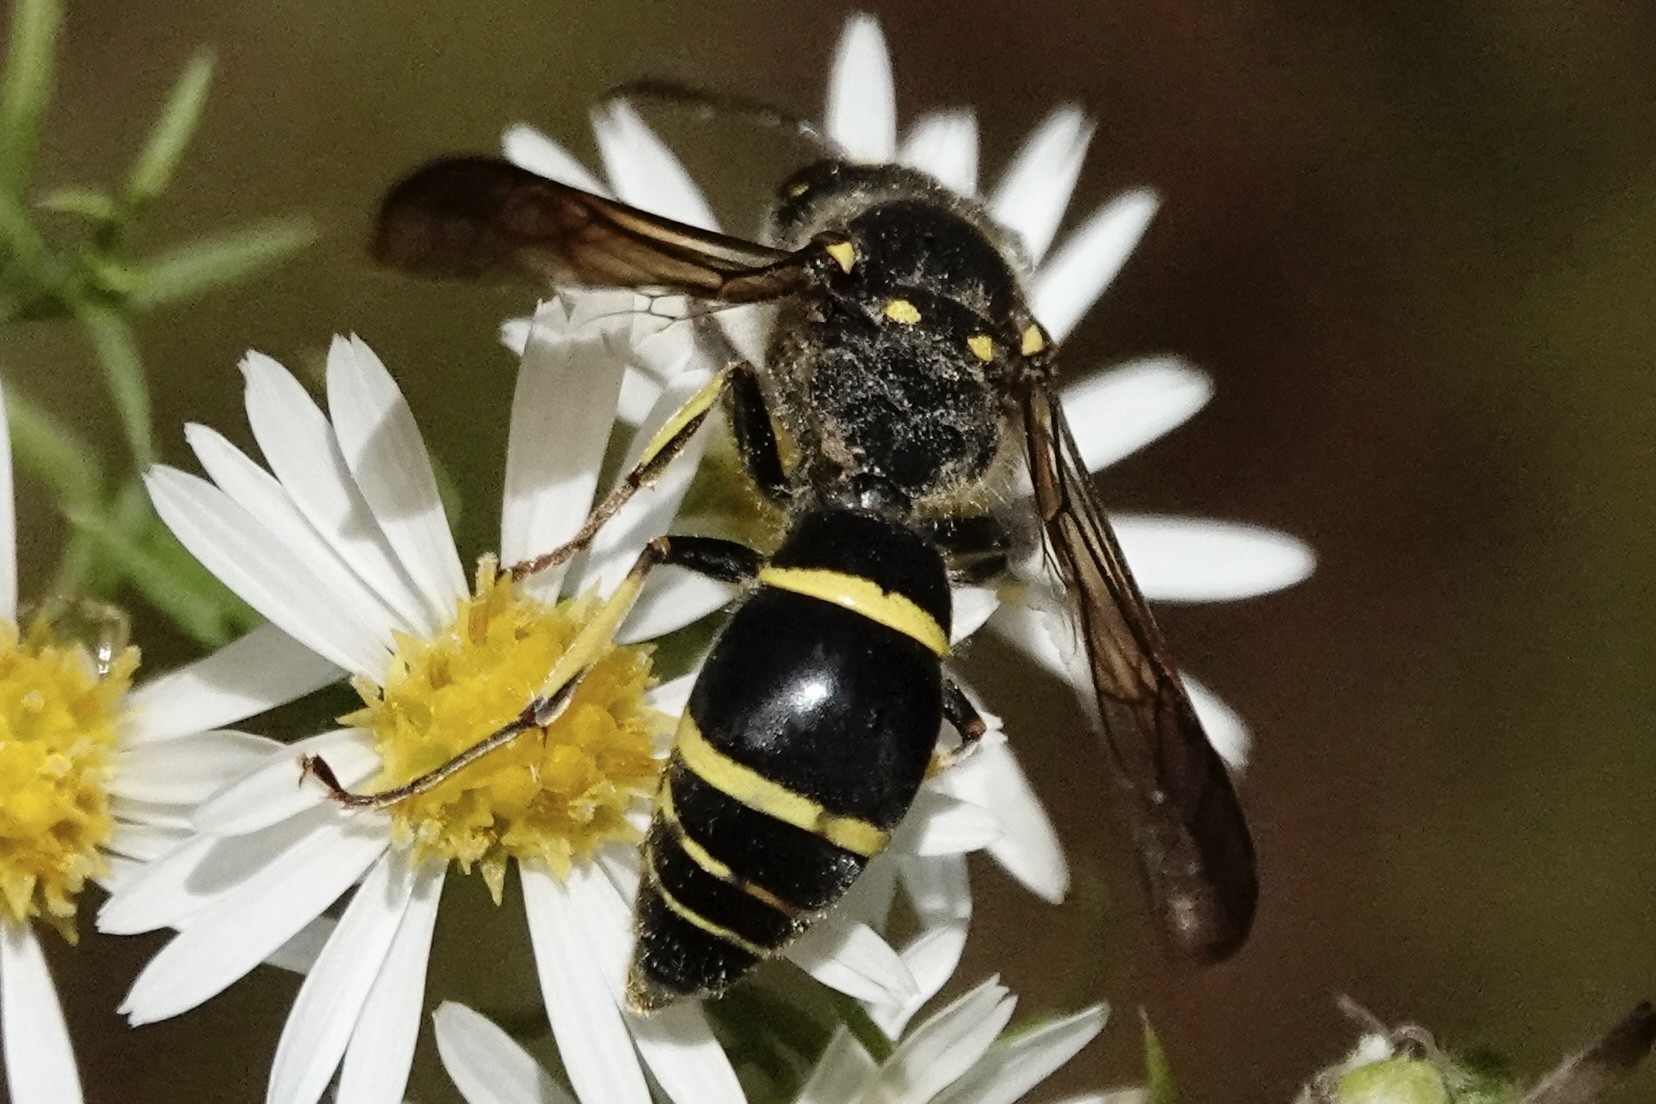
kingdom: Animalia
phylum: Arthropoda
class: Insecta
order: Hymenoptera
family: Vespidae
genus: Ancistrocerus
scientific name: Ancistrocerus
